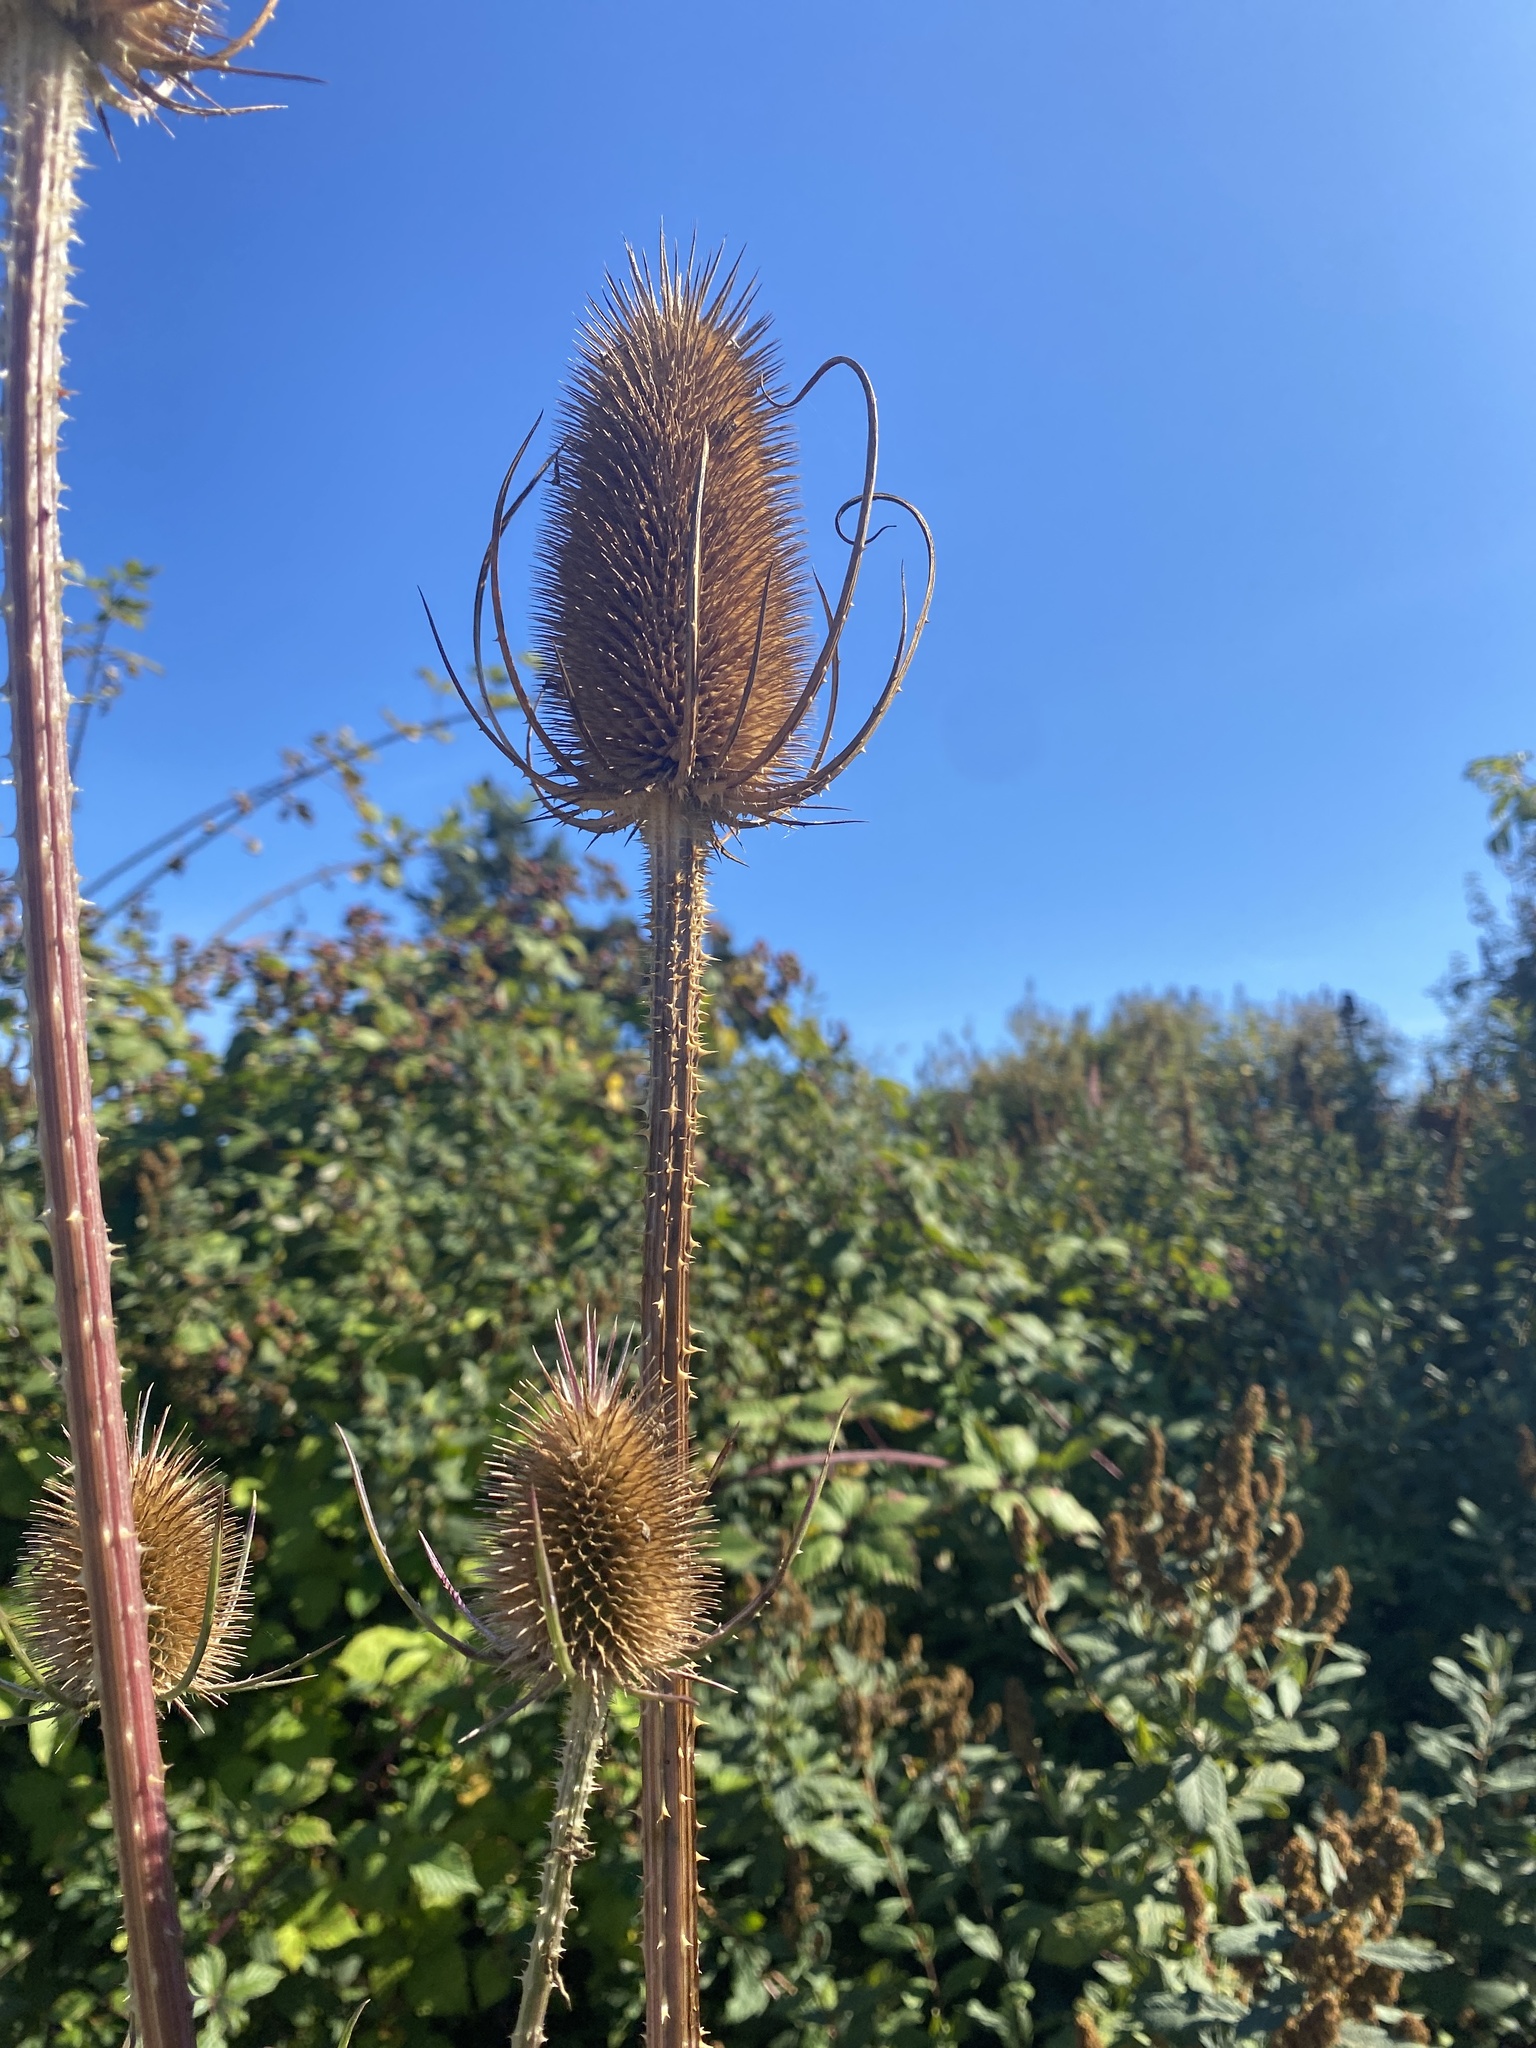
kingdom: Plantae
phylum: Tracheophyta
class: Magnoliopsida
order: Dipsacales
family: Caprifoliaceae
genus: Dipsacus
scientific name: Dipsacus fullonum
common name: Teasel
